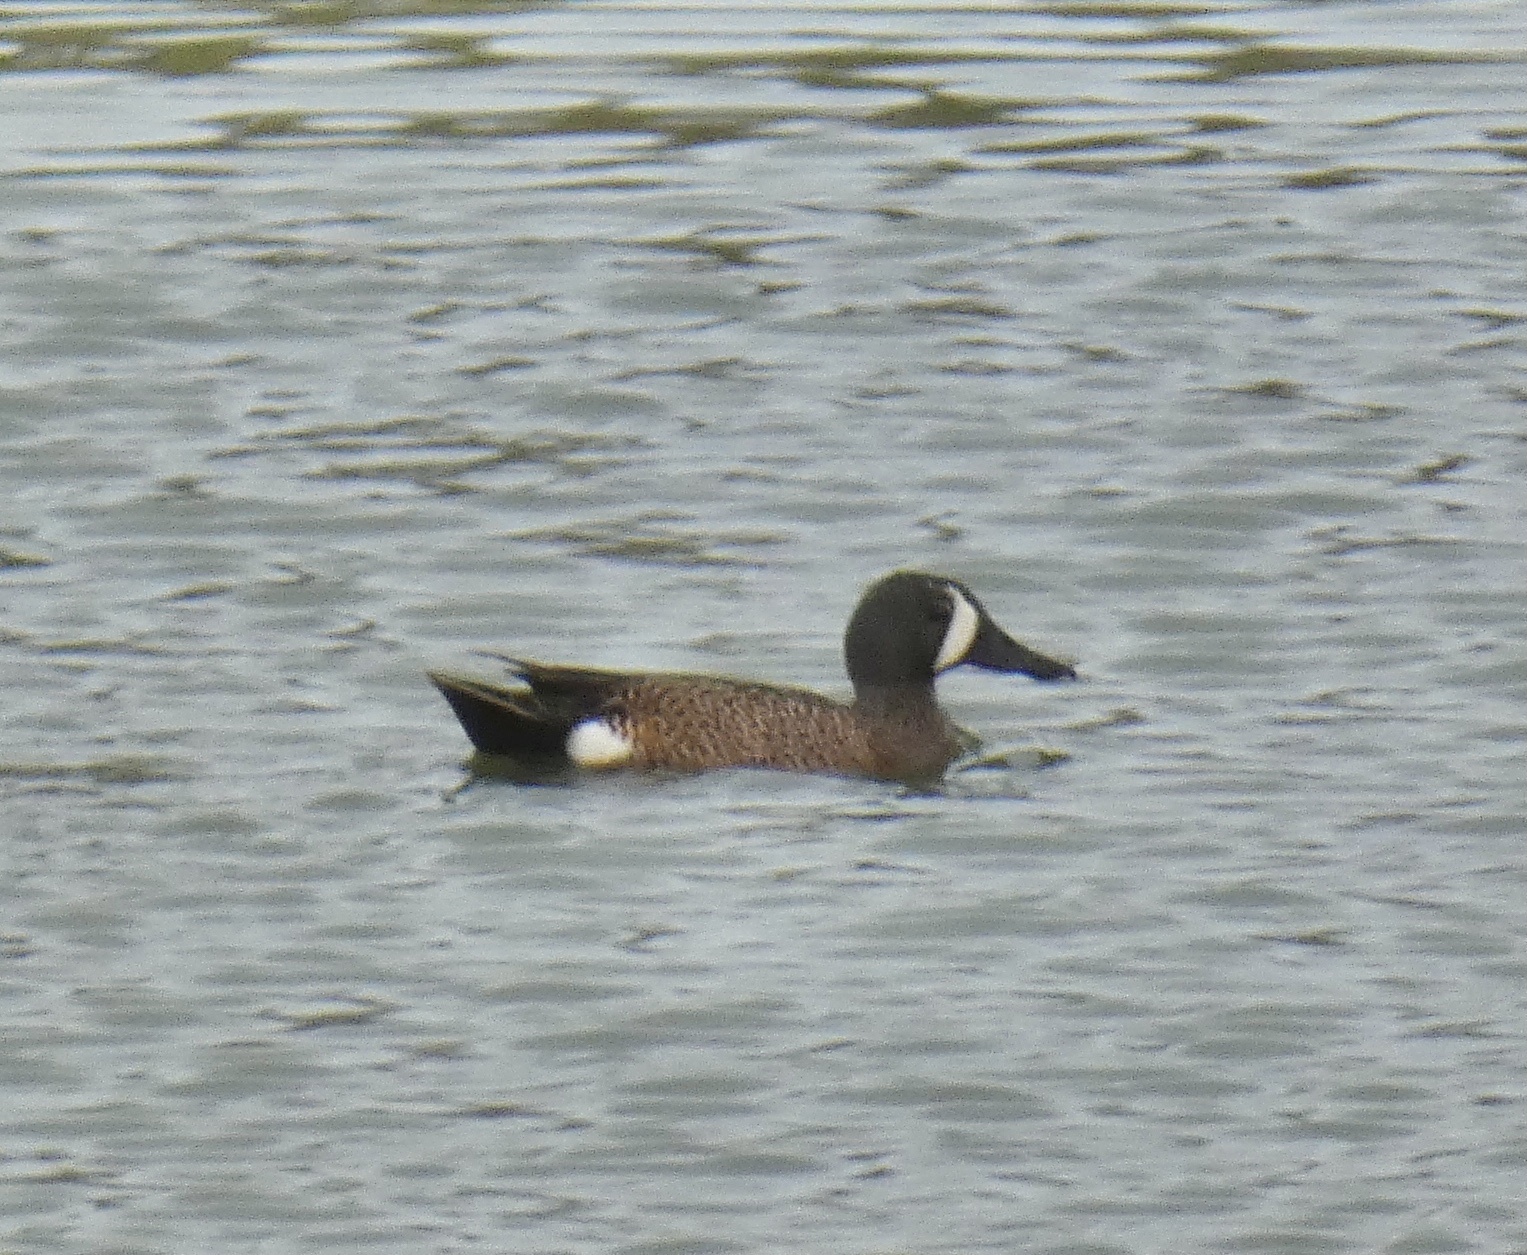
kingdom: Animalia
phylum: Chordata
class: Aves
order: Anseriformes
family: Anatidae
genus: Spatula
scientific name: Spatula discors
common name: Blue-winged teal
